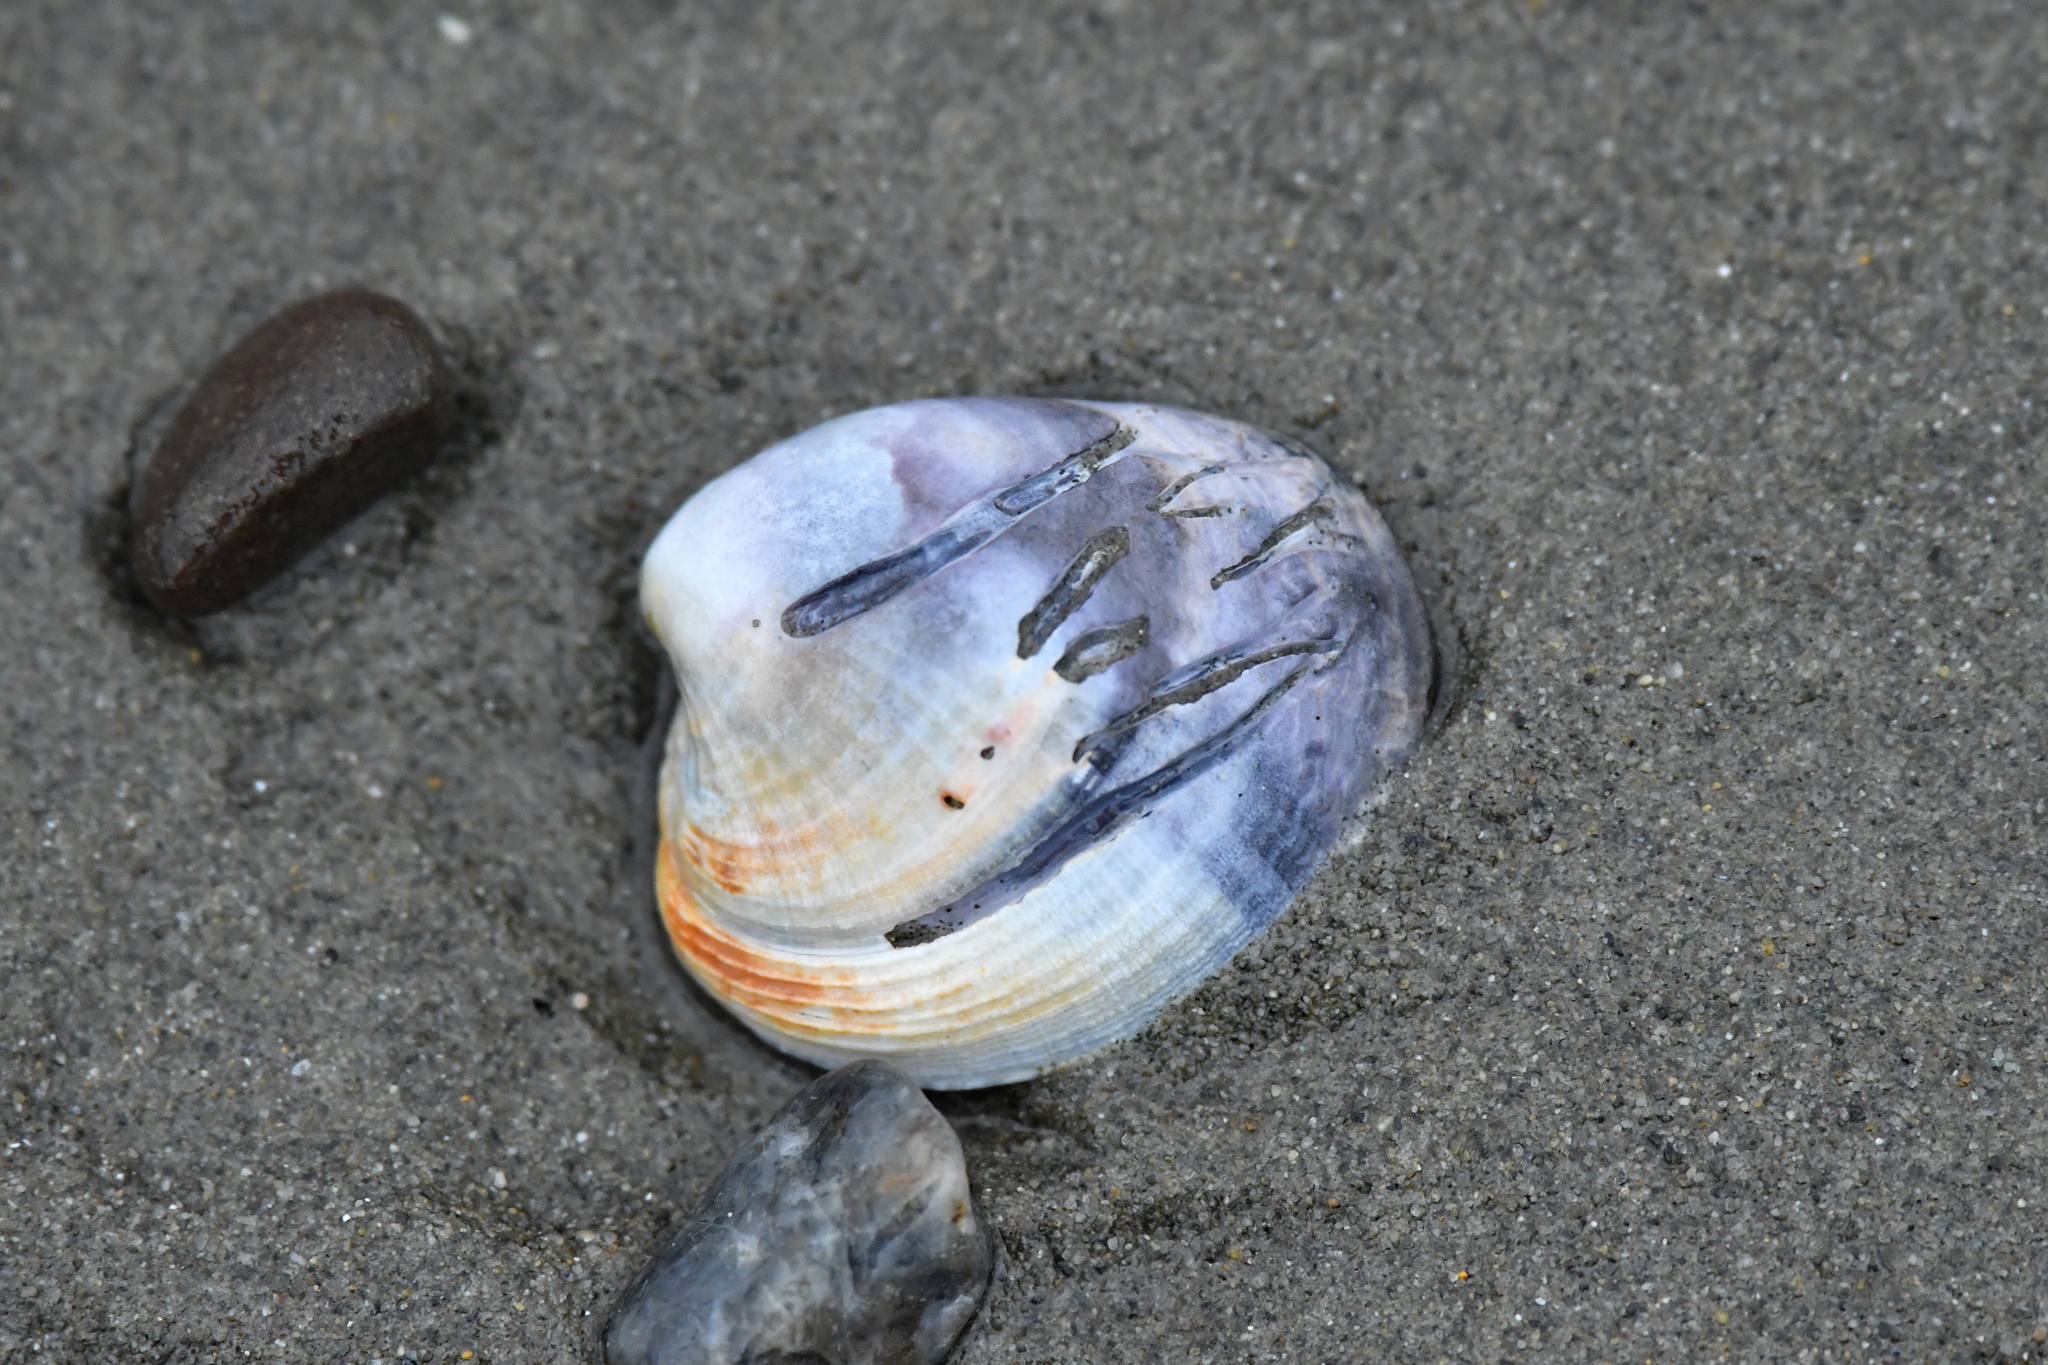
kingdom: Animalia
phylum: Mollusca
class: Bivalvia
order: Venerida
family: Veneridae
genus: Austrovenus
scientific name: Austrovenus stutchburyi
